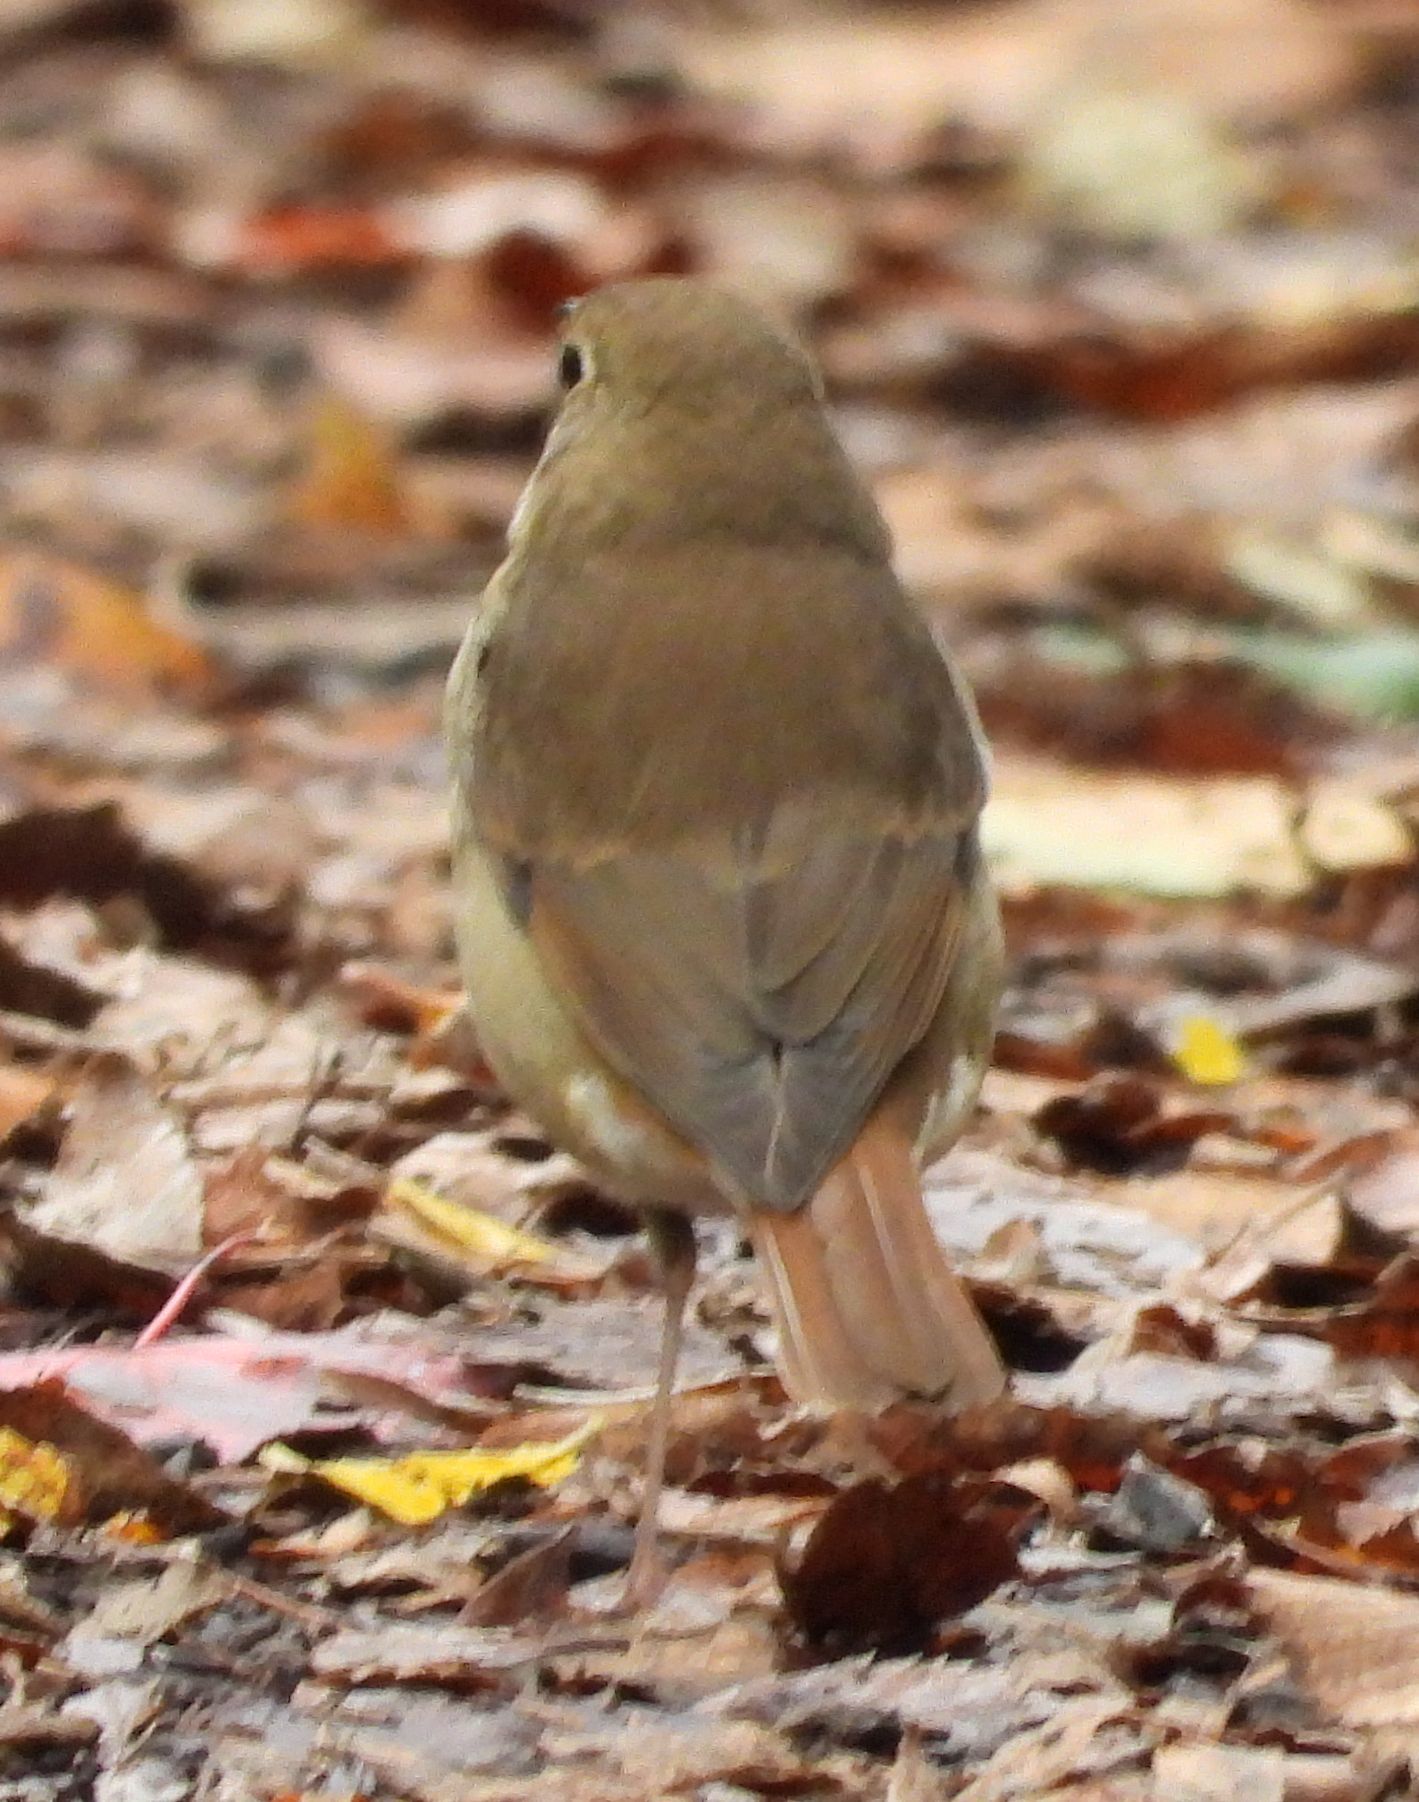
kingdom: Animalia
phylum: Chordata
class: Aves
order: Passeriformes
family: Turdidae
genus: Catharus
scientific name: Catharus guttatus
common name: Hermit thrush
